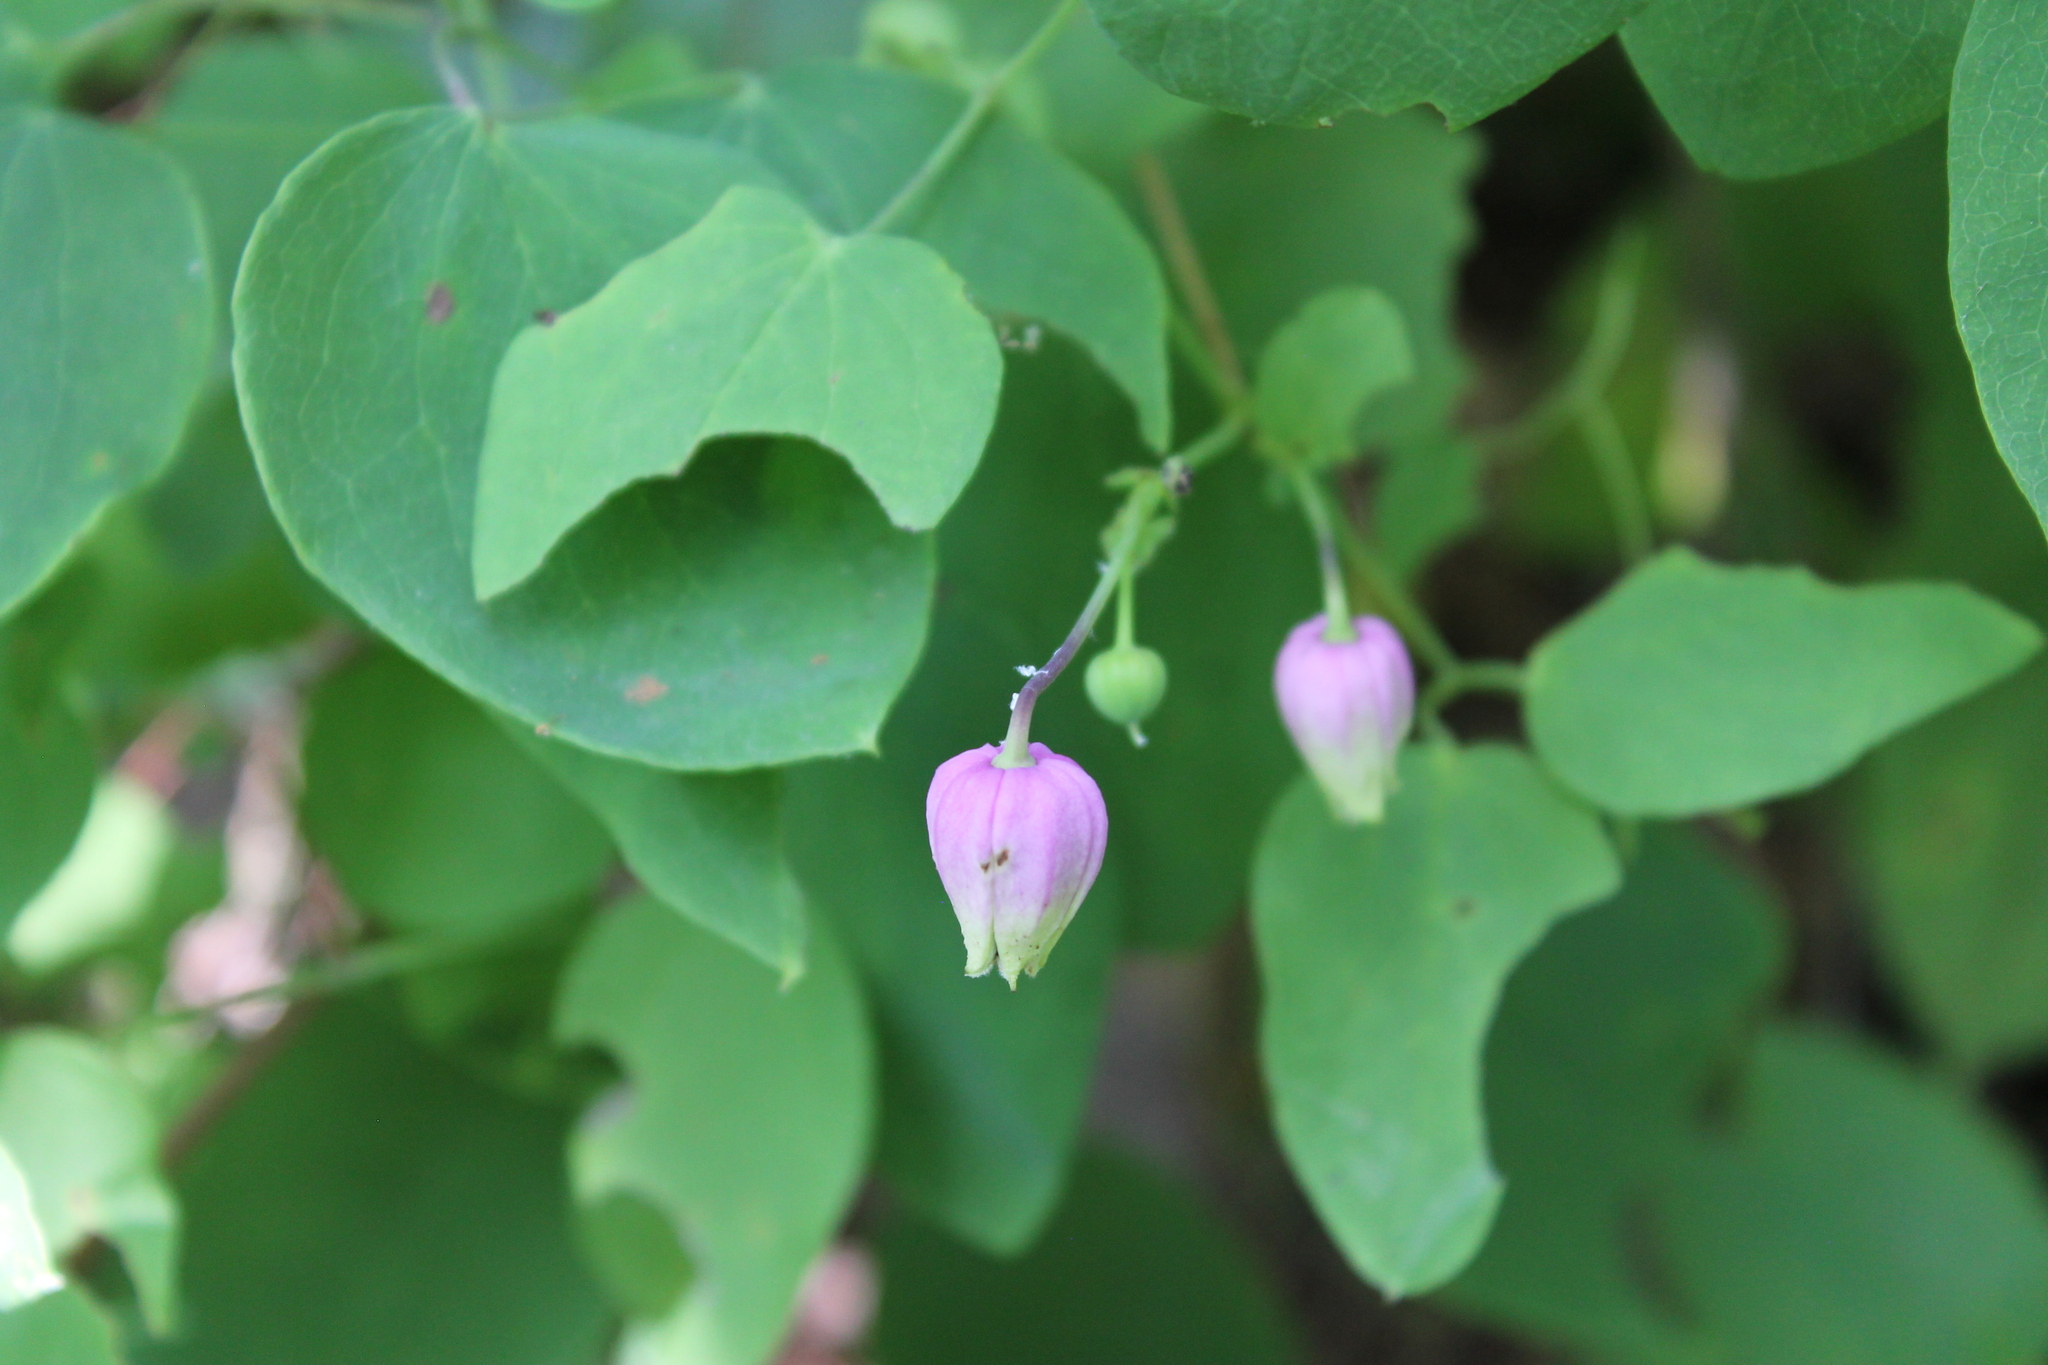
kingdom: Plantae
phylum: Tracheophyta
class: Magnoliopsida
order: Ranunculales
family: Ranunculaceae
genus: Clematis
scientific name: Clematis versicolor
